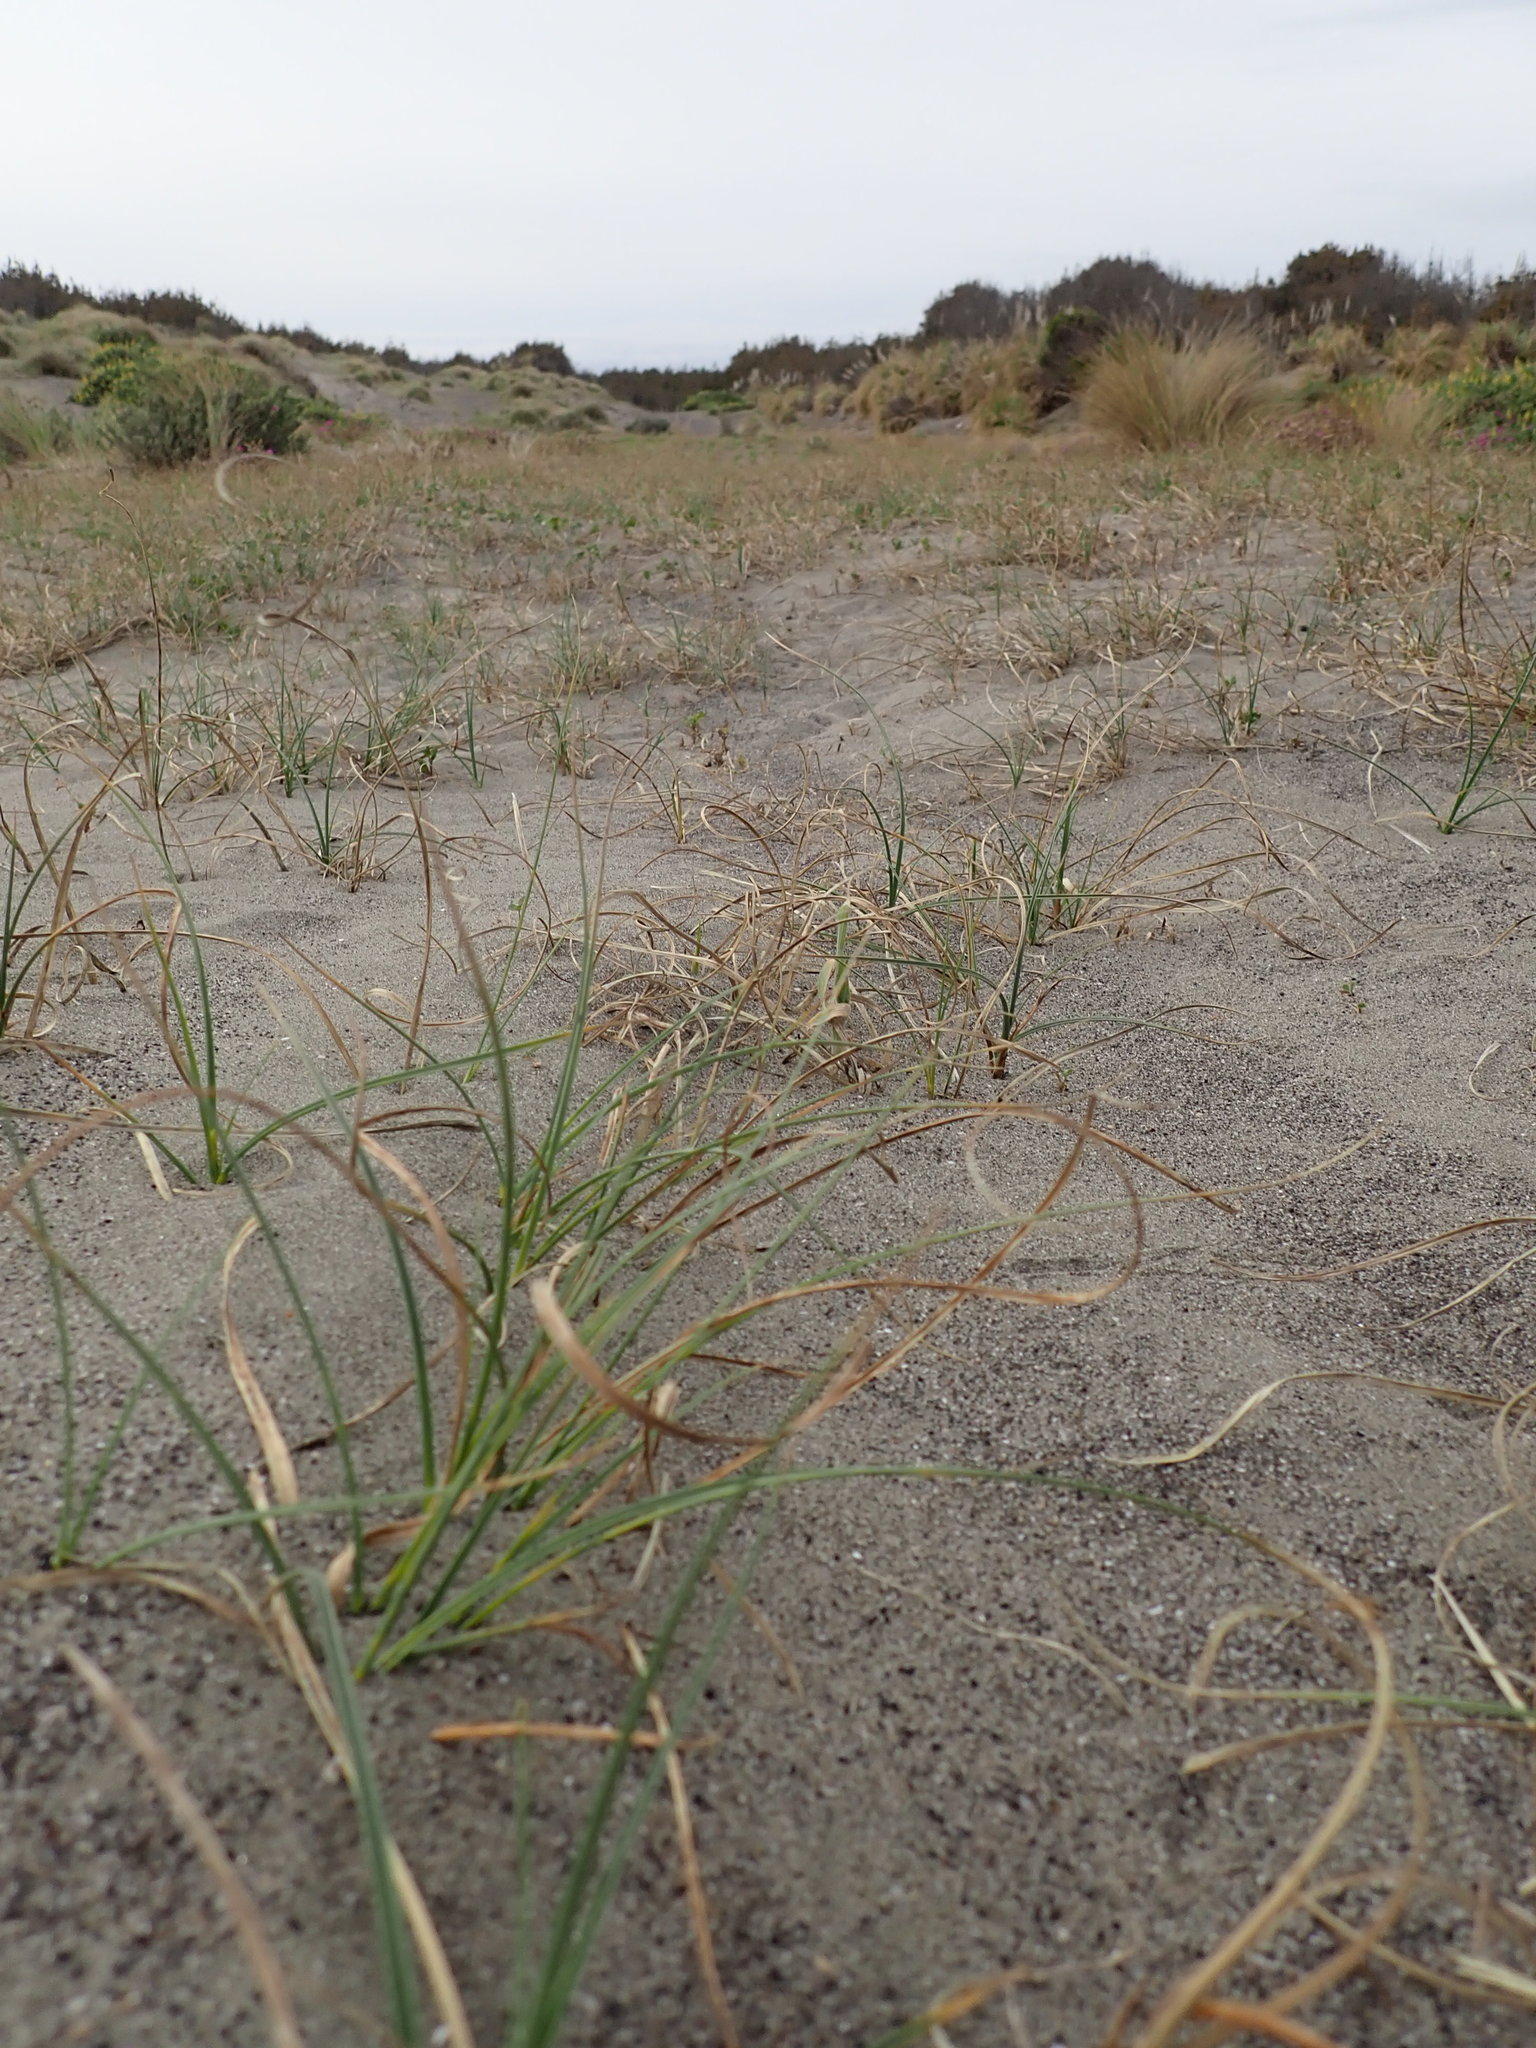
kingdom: Plantae
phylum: Tracheophyta
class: Liliopsida
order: Poales
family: Cyperaceae
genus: Carex
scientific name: Carex pumila
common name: Dwarf sedge
